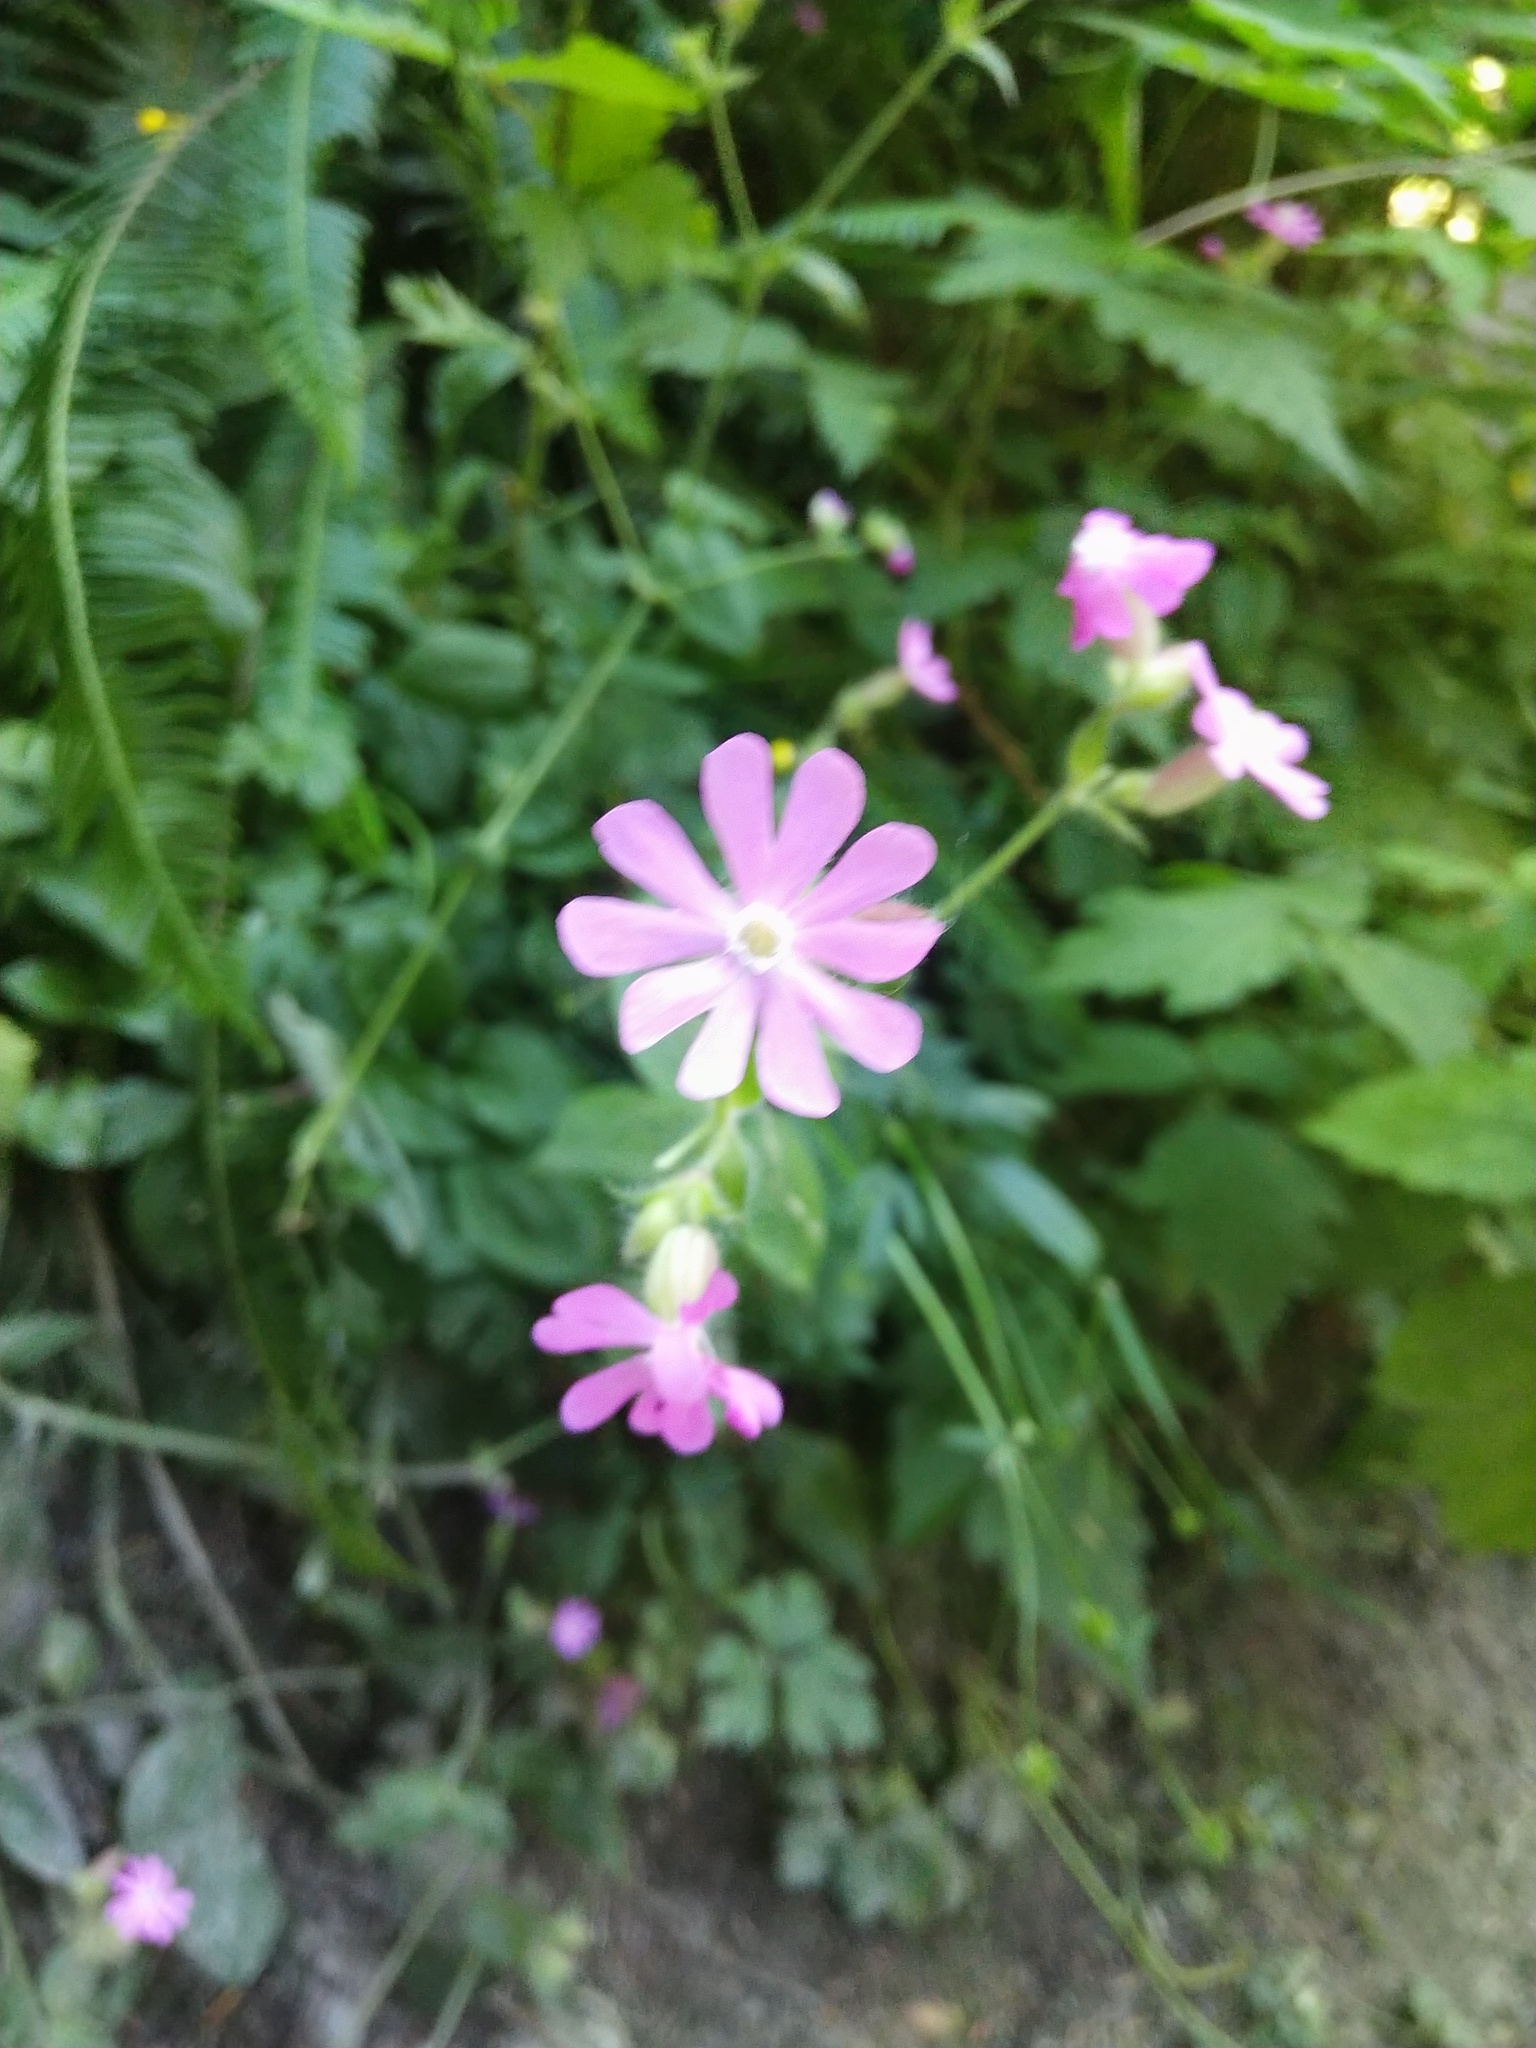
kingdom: Plantae
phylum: Tracheophyta
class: Magnoliopsida
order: Caryophyllales
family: Caryophyllaceae
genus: Silene
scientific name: Silene dioica
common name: Red campion
